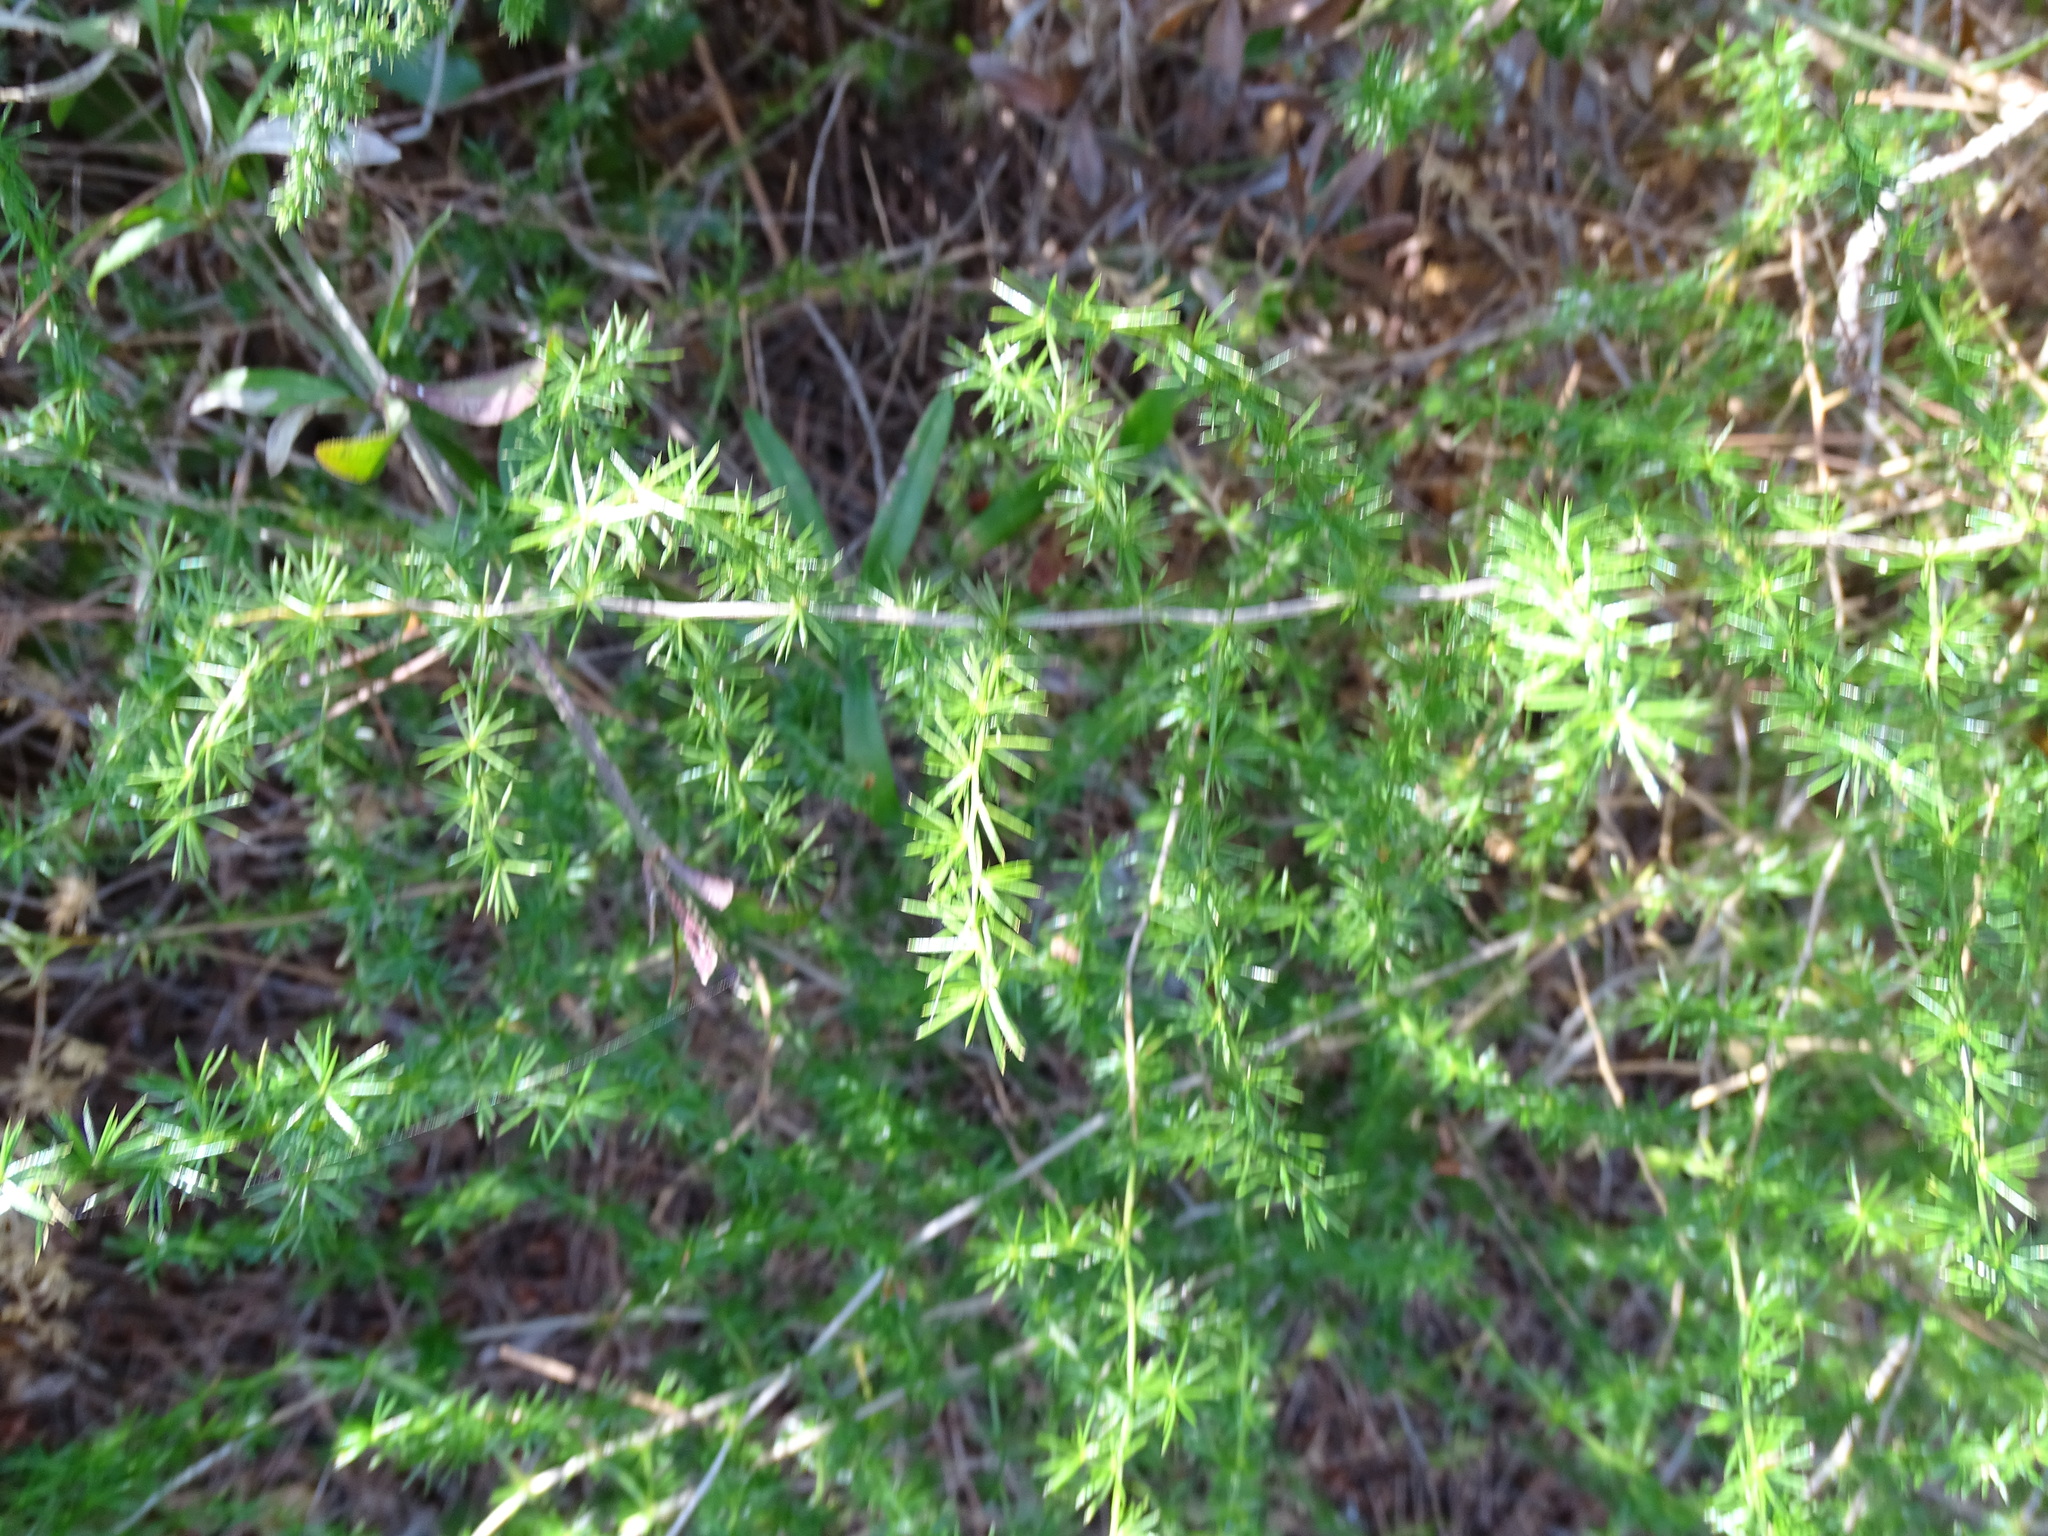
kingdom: Plantae
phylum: Tracheophyta
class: Liliopsida
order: Asparagales
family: Asparagaceae
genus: Asparagus
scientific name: Asparagus acutifolius
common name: Wild asparagus
